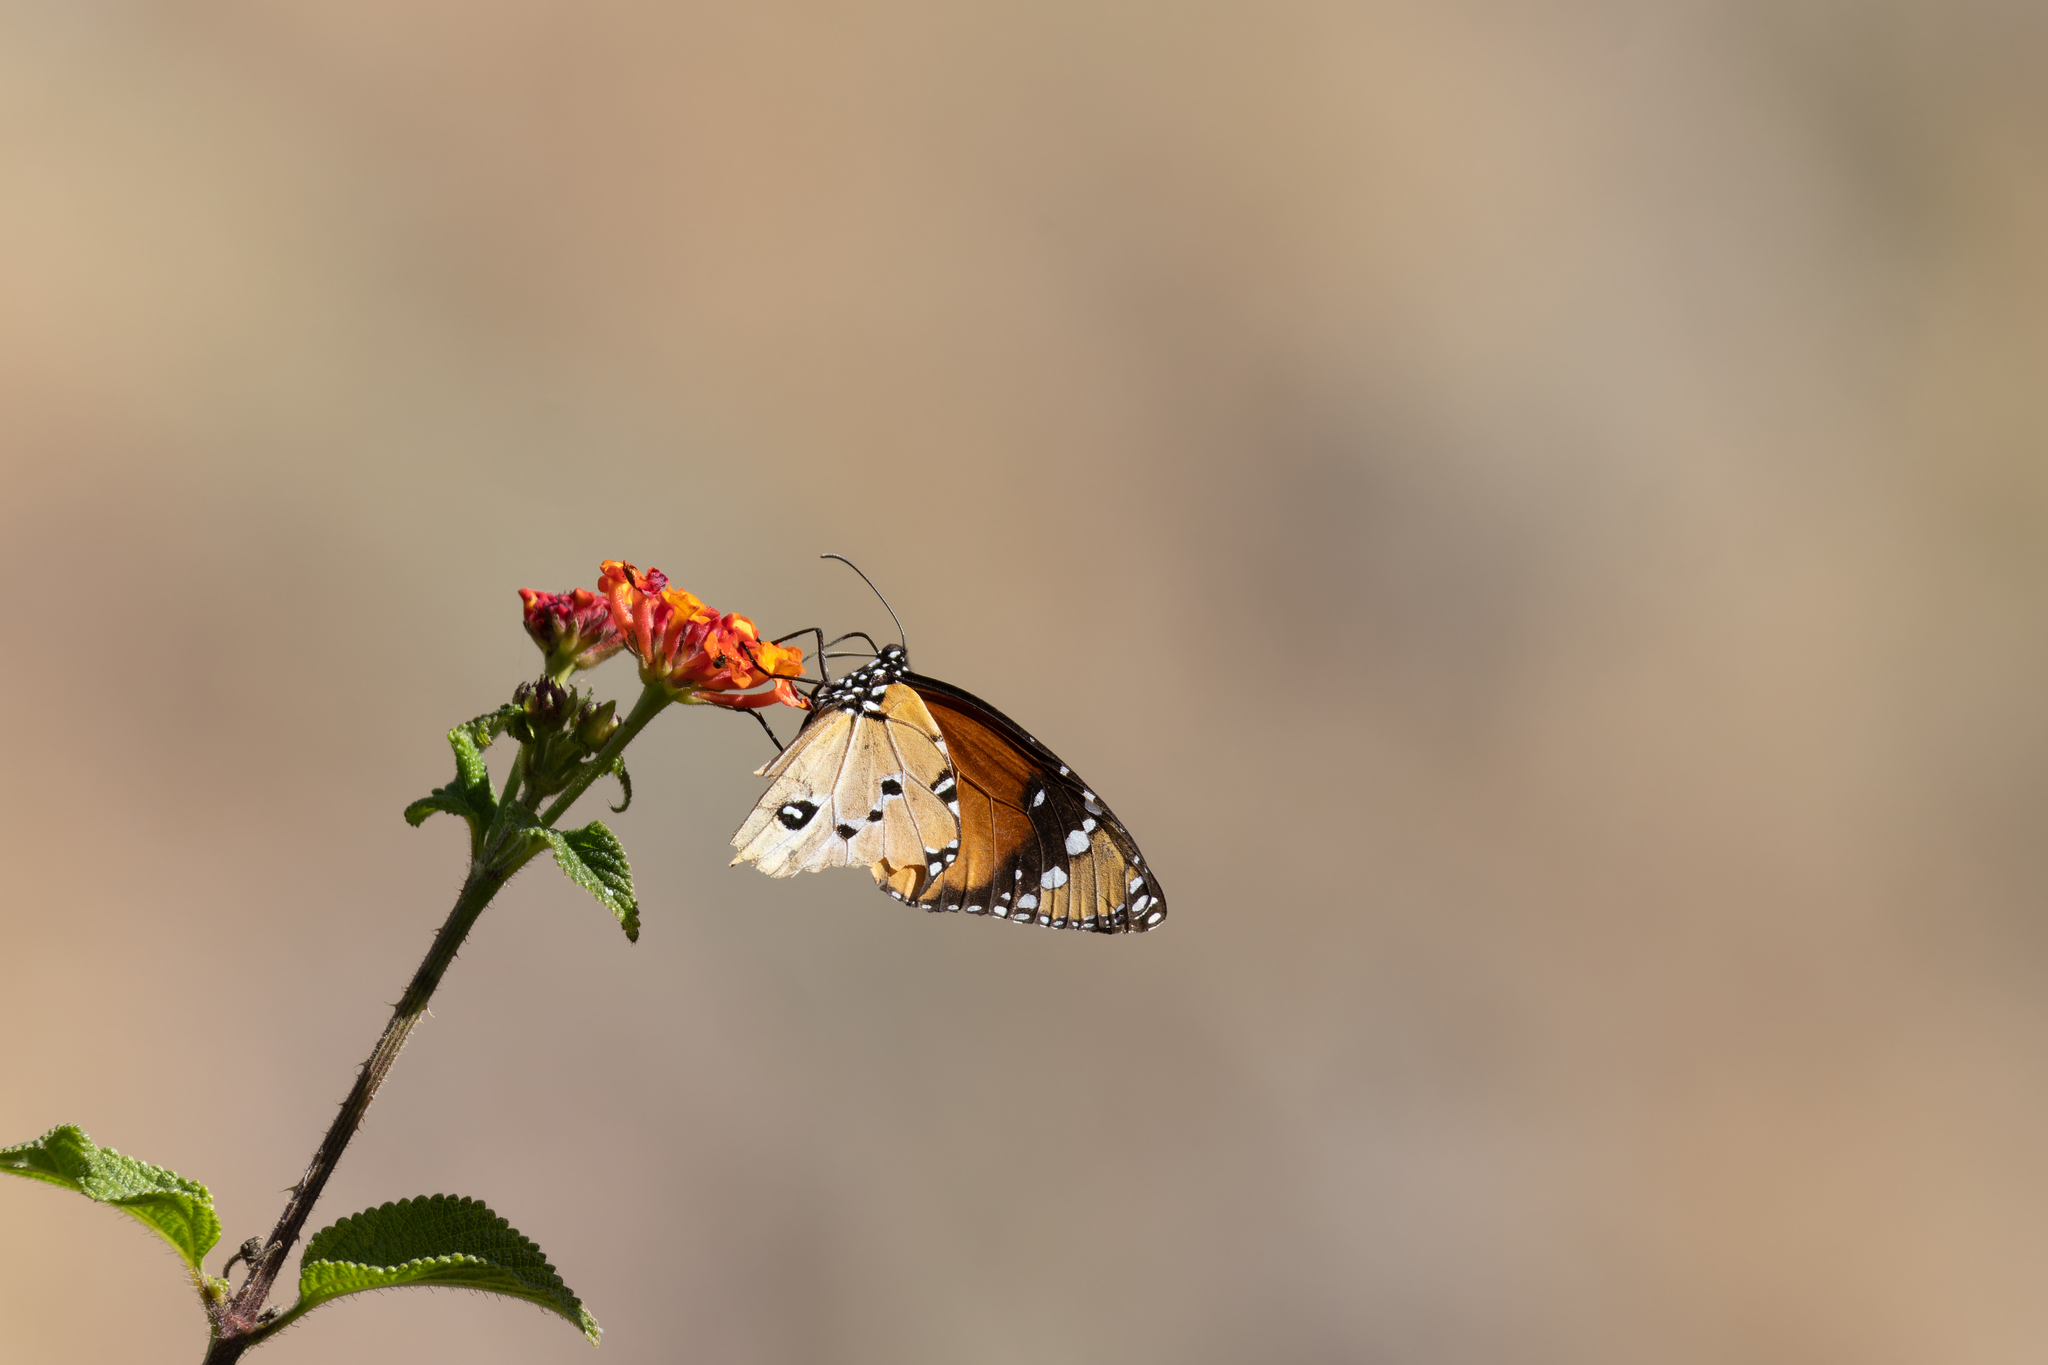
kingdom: Animalia
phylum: Arthropoda
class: Insecta
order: Lepidoptera
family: Nymphalidae
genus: Danaus
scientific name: Danaus chrysippus
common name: Plain tiger
